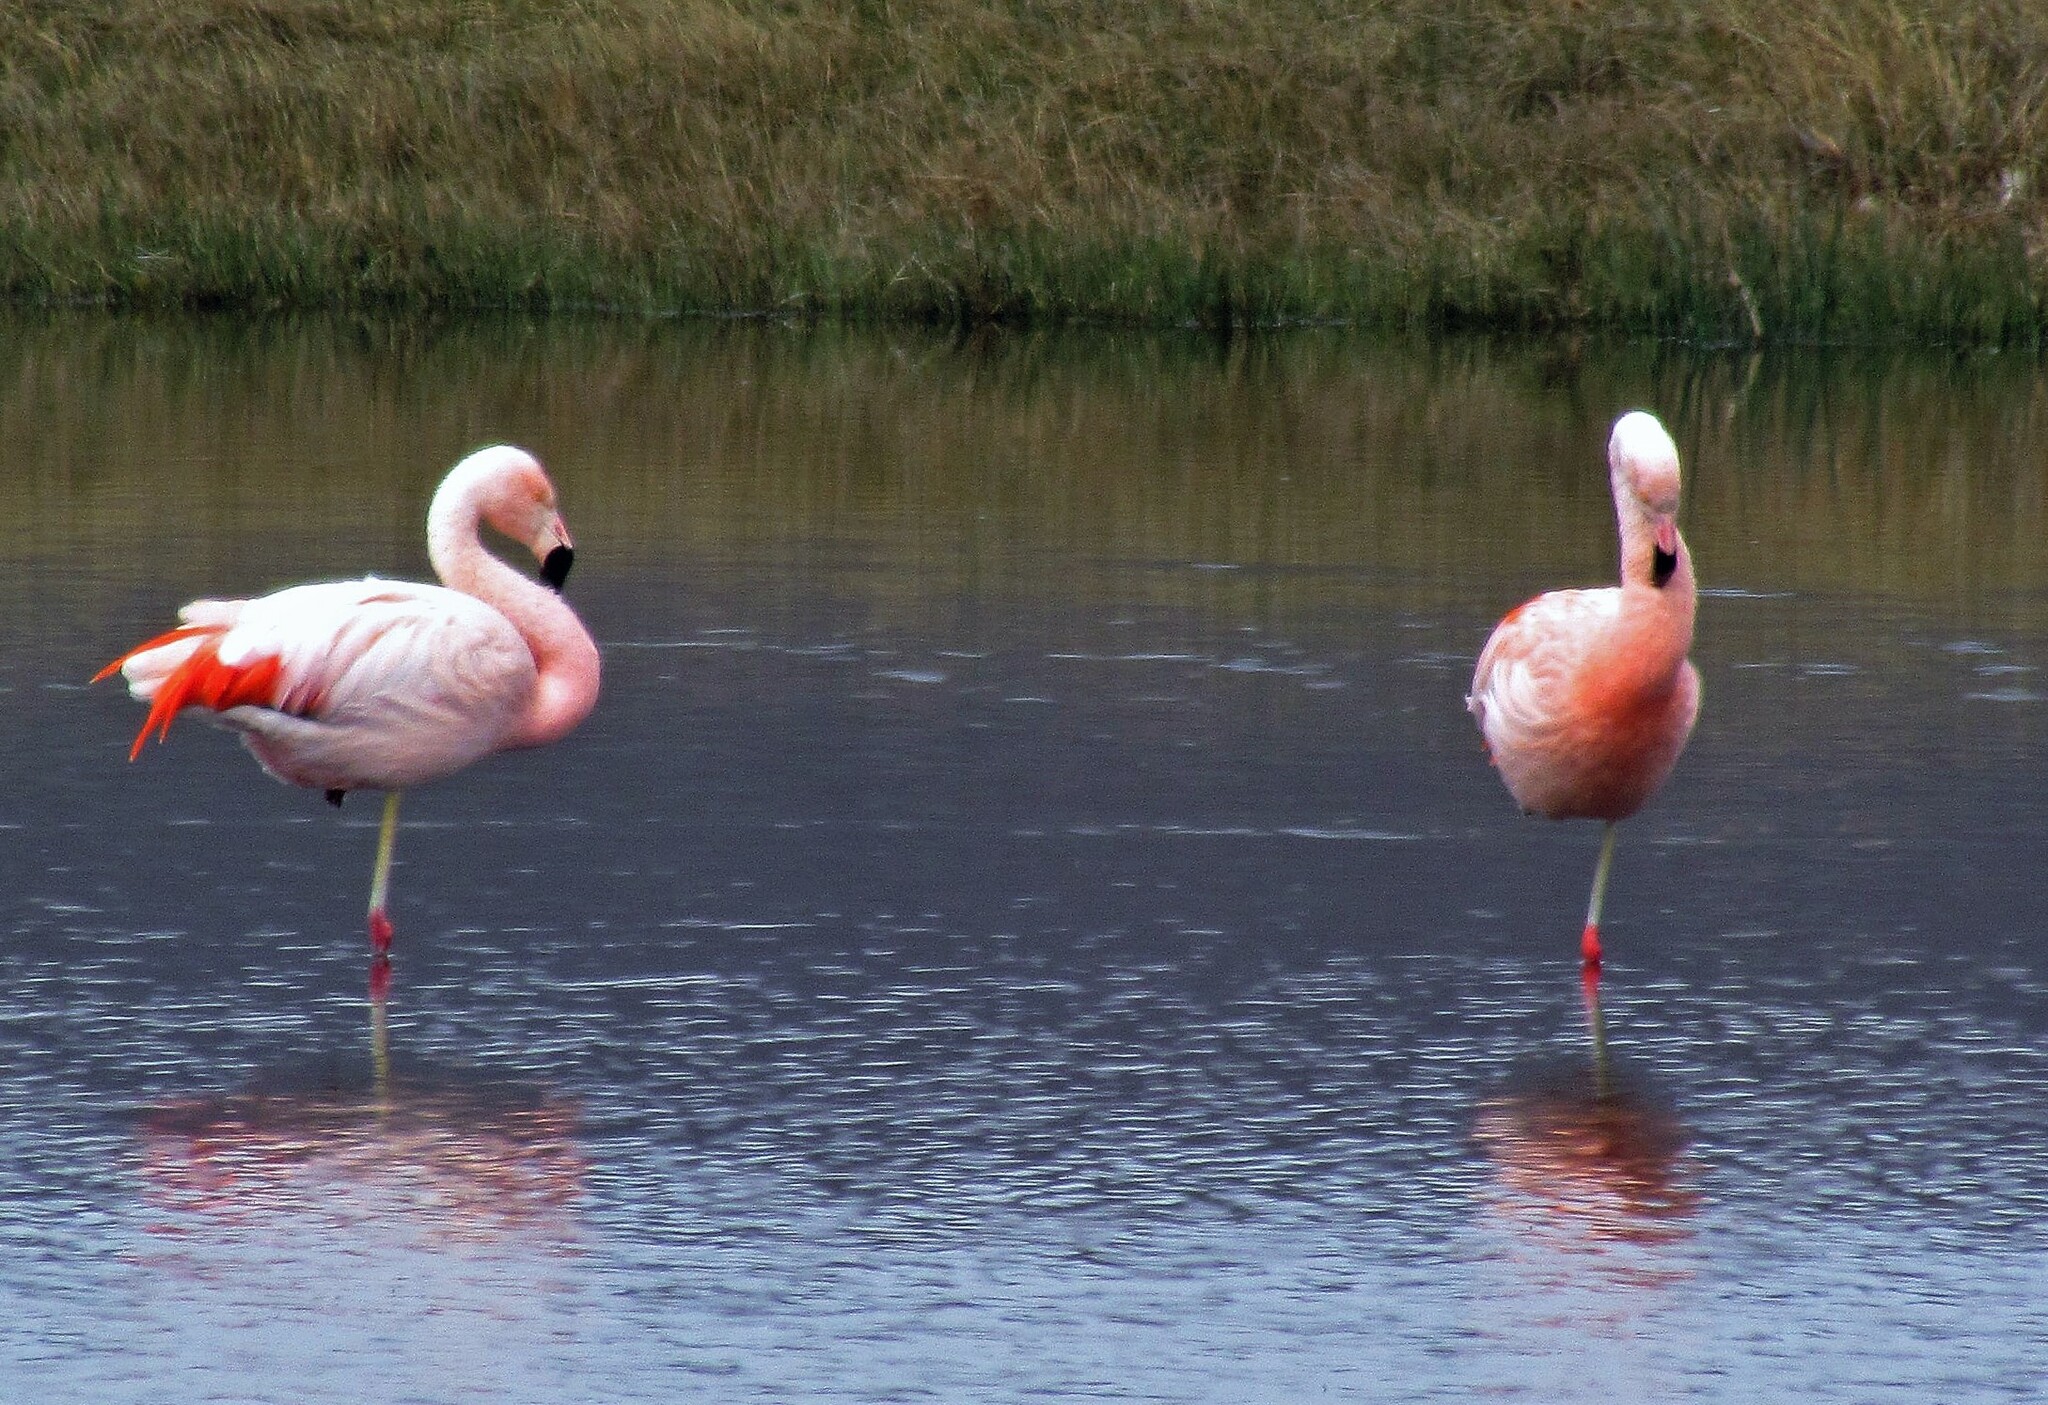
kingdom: Animalia
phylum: Chordata
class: Aves
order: Phoenicopteriformes
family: Phoenicopteridae
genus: Phoenicopterus
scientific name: Phoenicopterus chilensis
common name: Chilean flamingo
